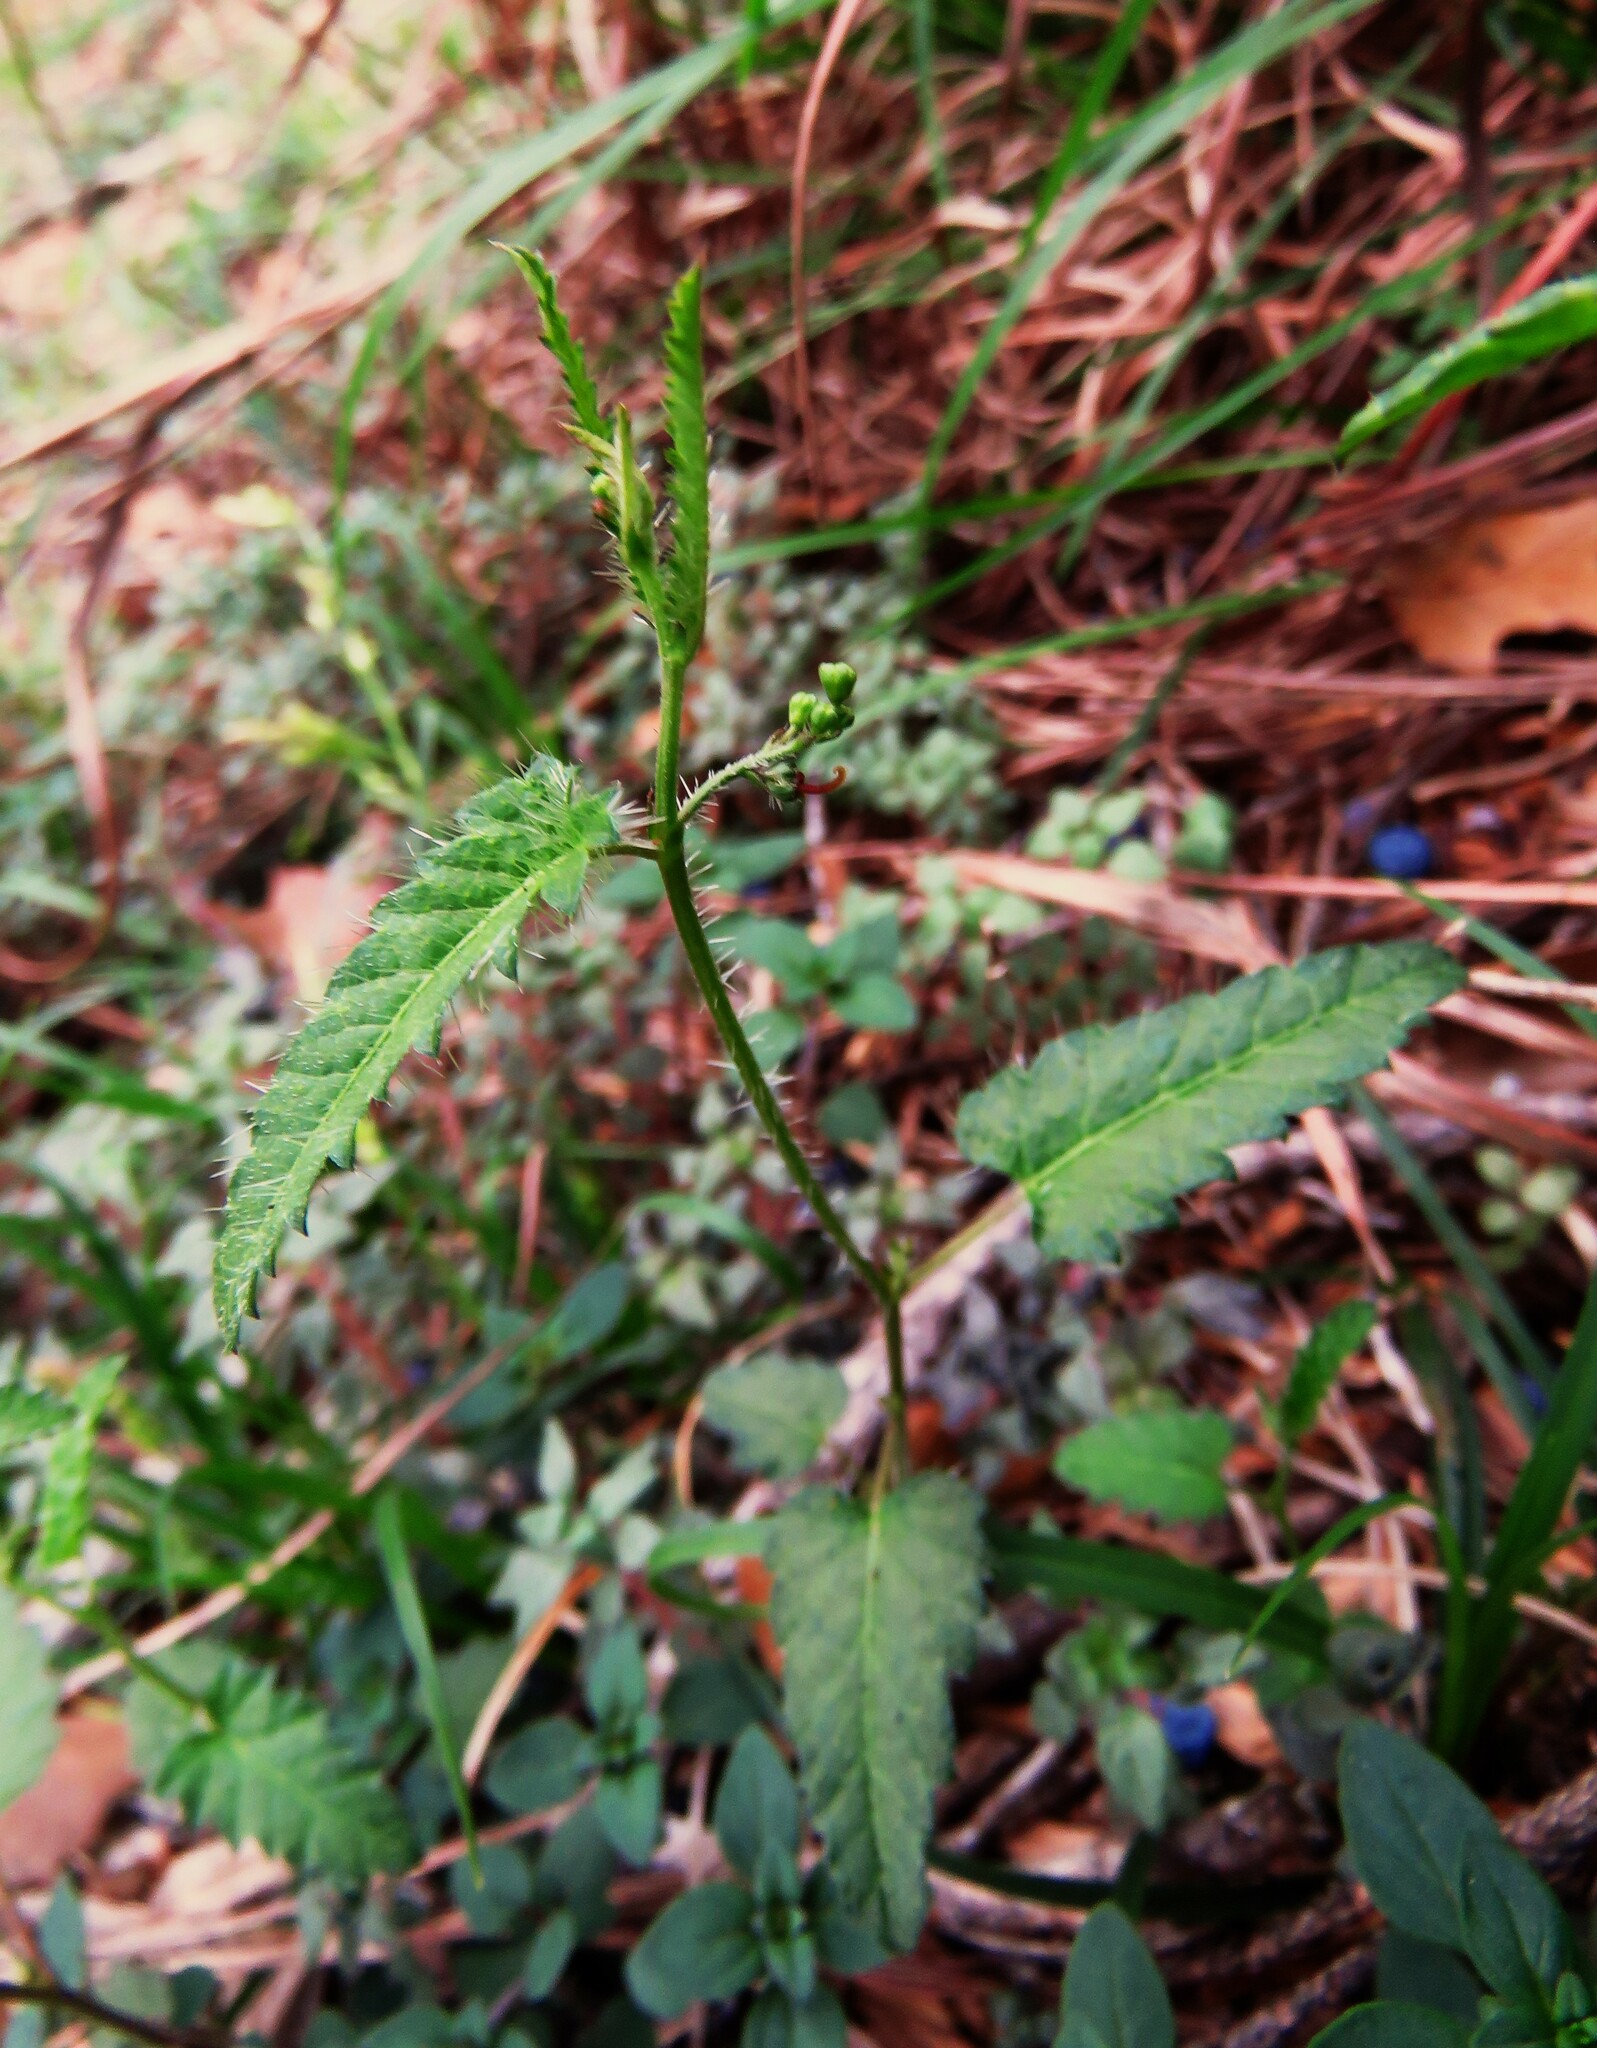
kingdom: Plantae
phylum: Tracheophyta
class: Magnoliopsida
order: Malpighiales
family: Euphorbiaceae
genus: Tragia
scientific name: Tragia ramosa
